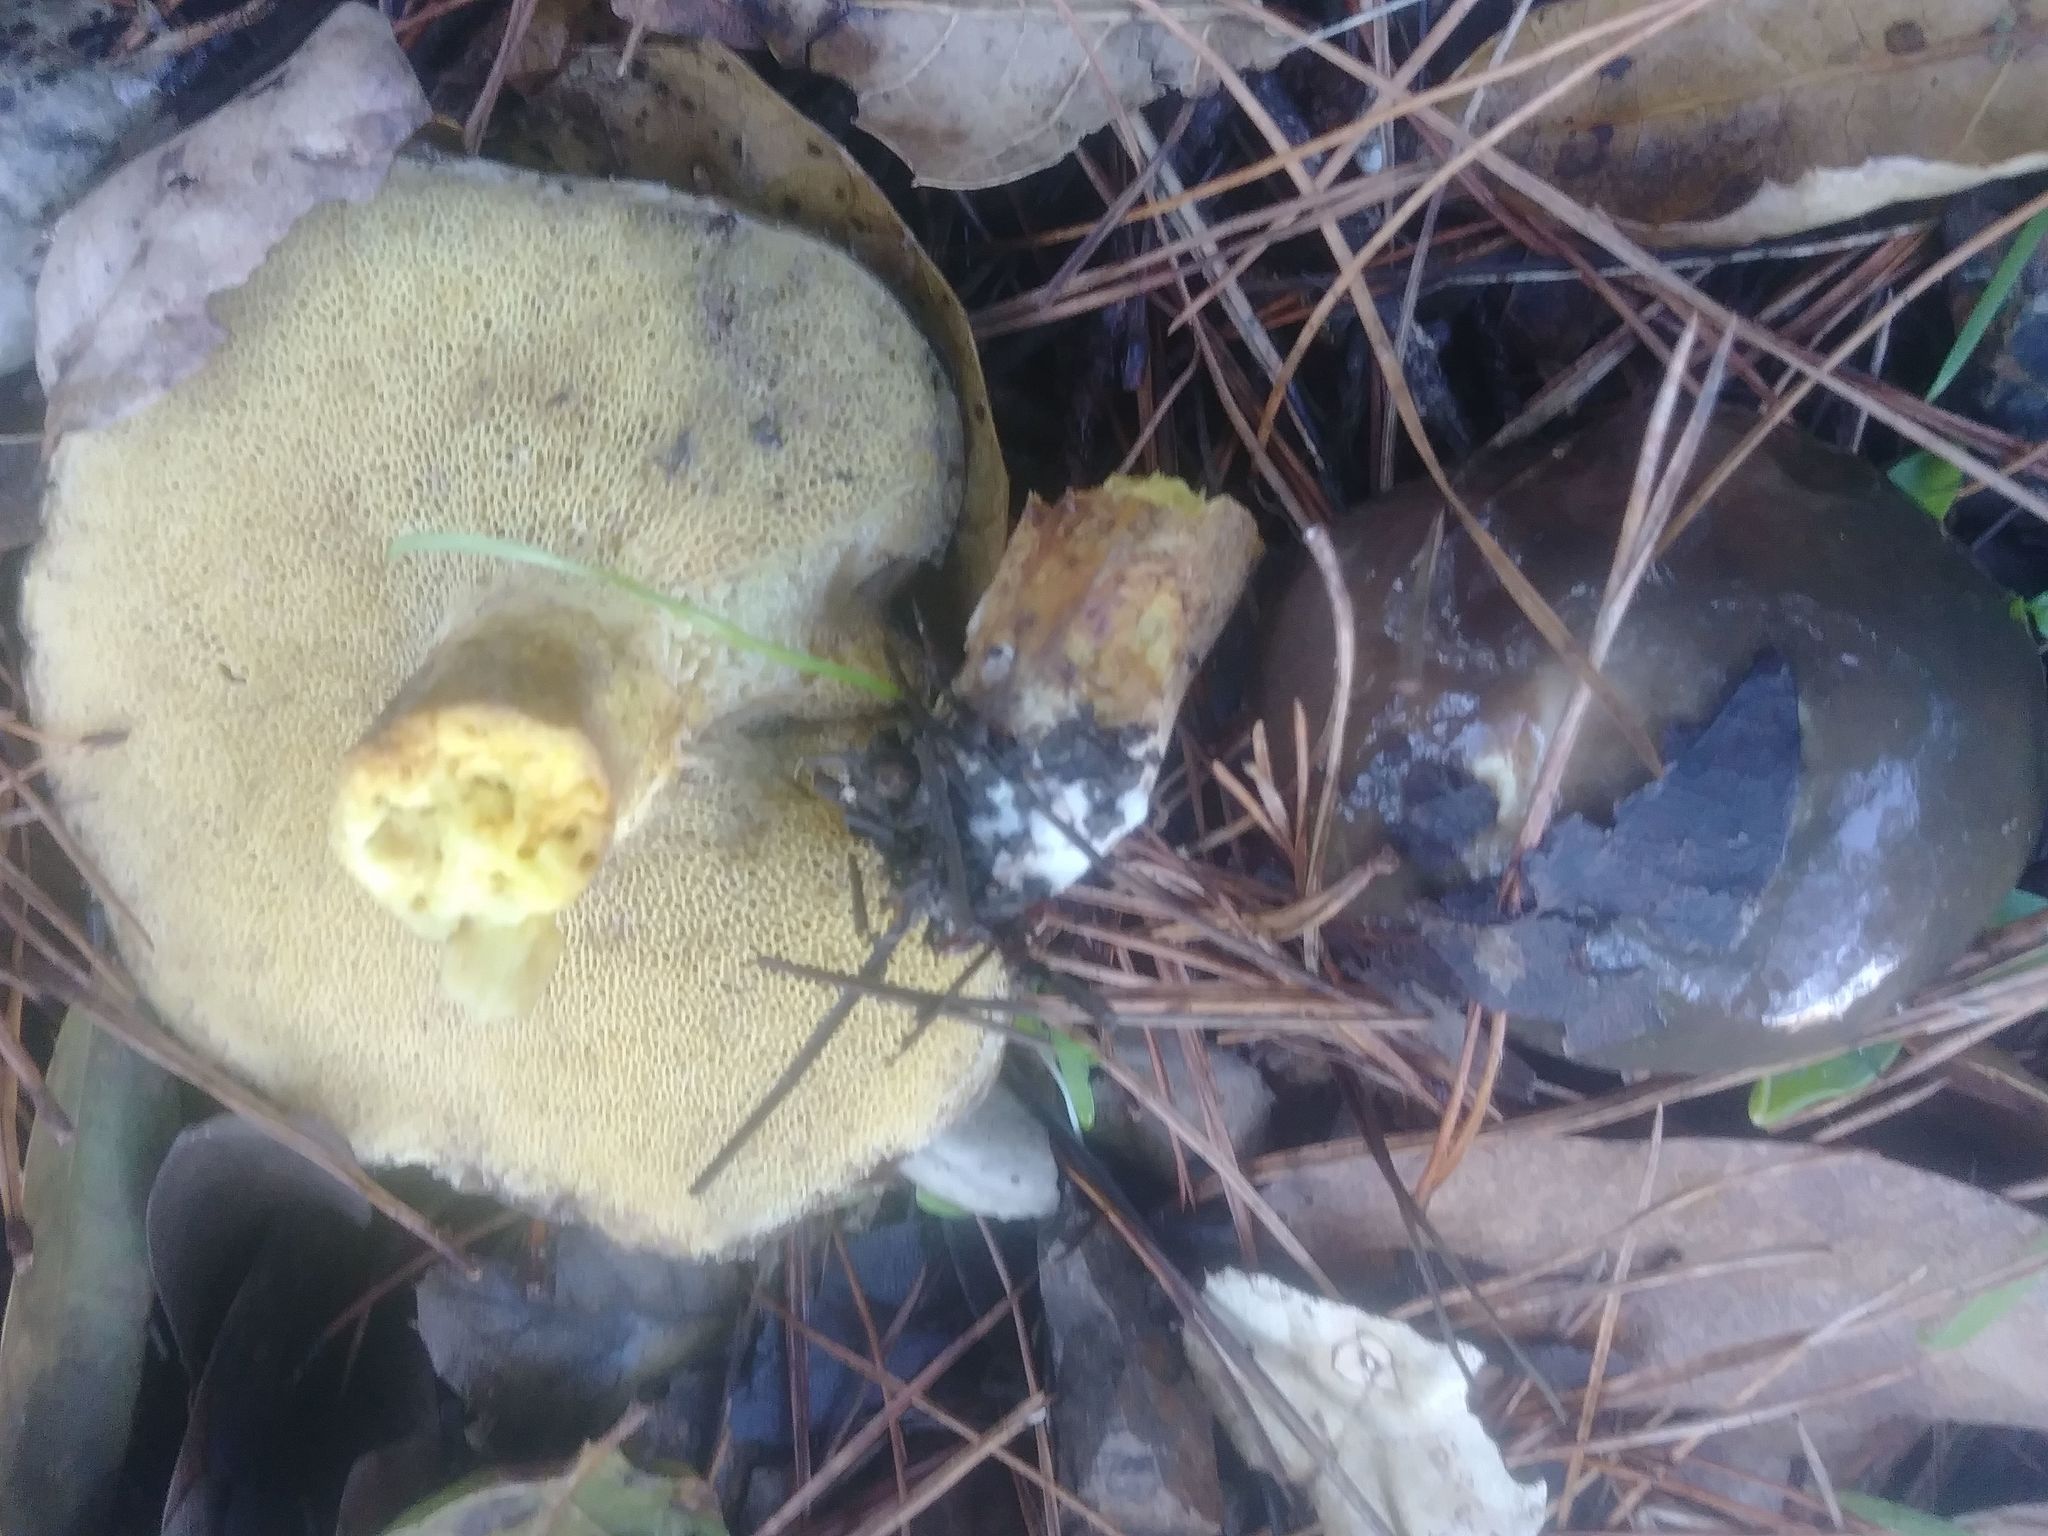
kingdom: Fungi
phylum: Basidiomycota
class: Agaricomycetes
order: Boletales
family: Suillaceae
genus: Suillus
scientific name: Suillus pungens
